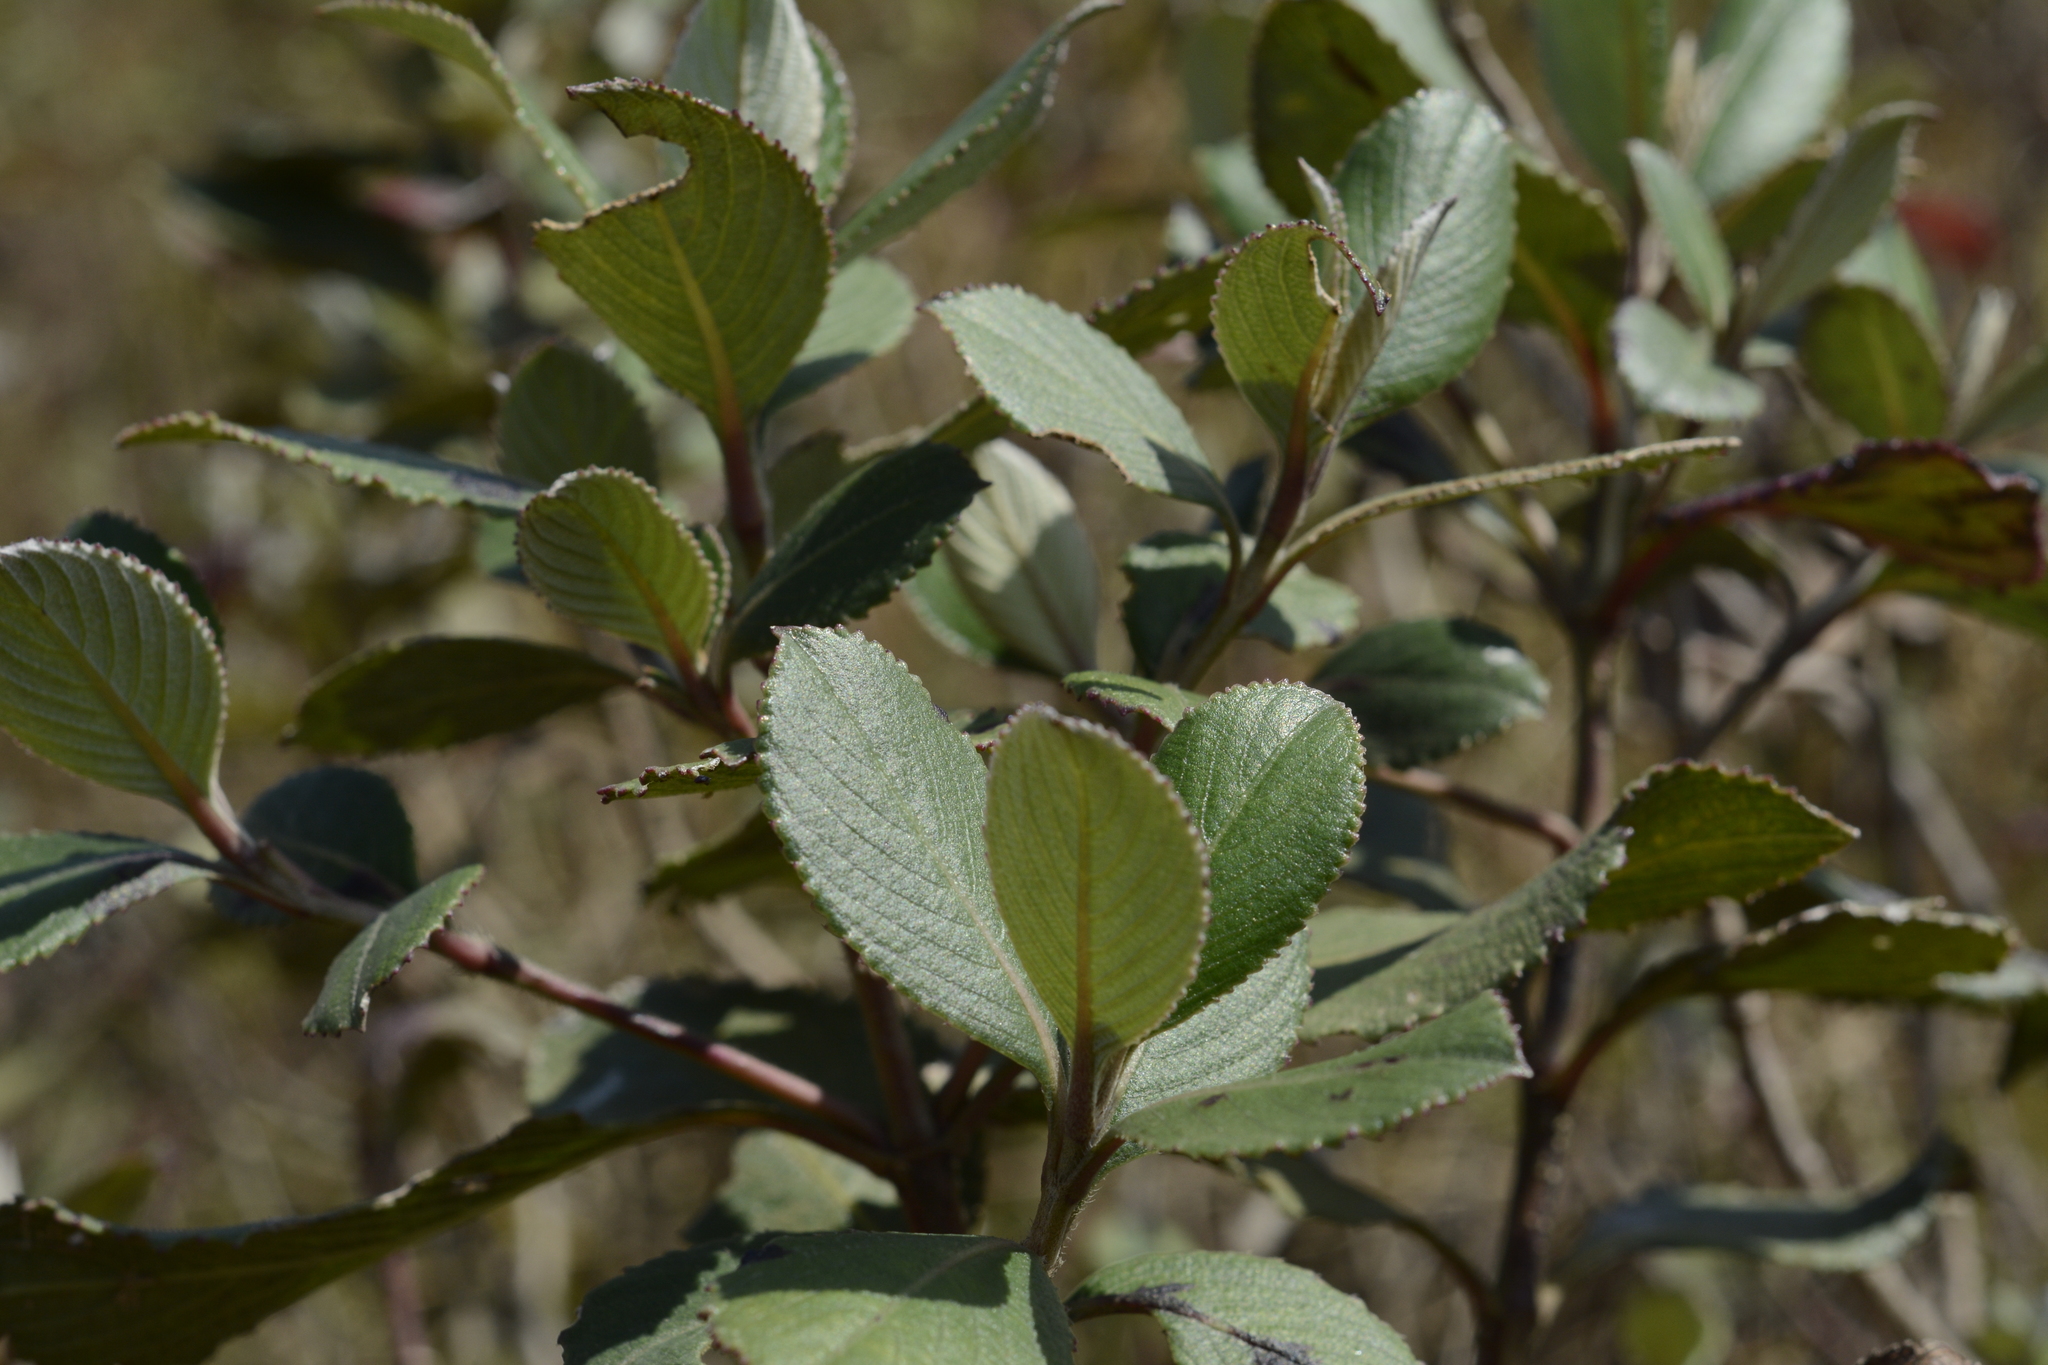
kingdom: Plantae
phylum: Tracheophyta
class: Magnoliopsida
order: Lamiales
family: Acanthaceae
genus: Strobilanthes
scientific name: Strobilanthes kunthiana
